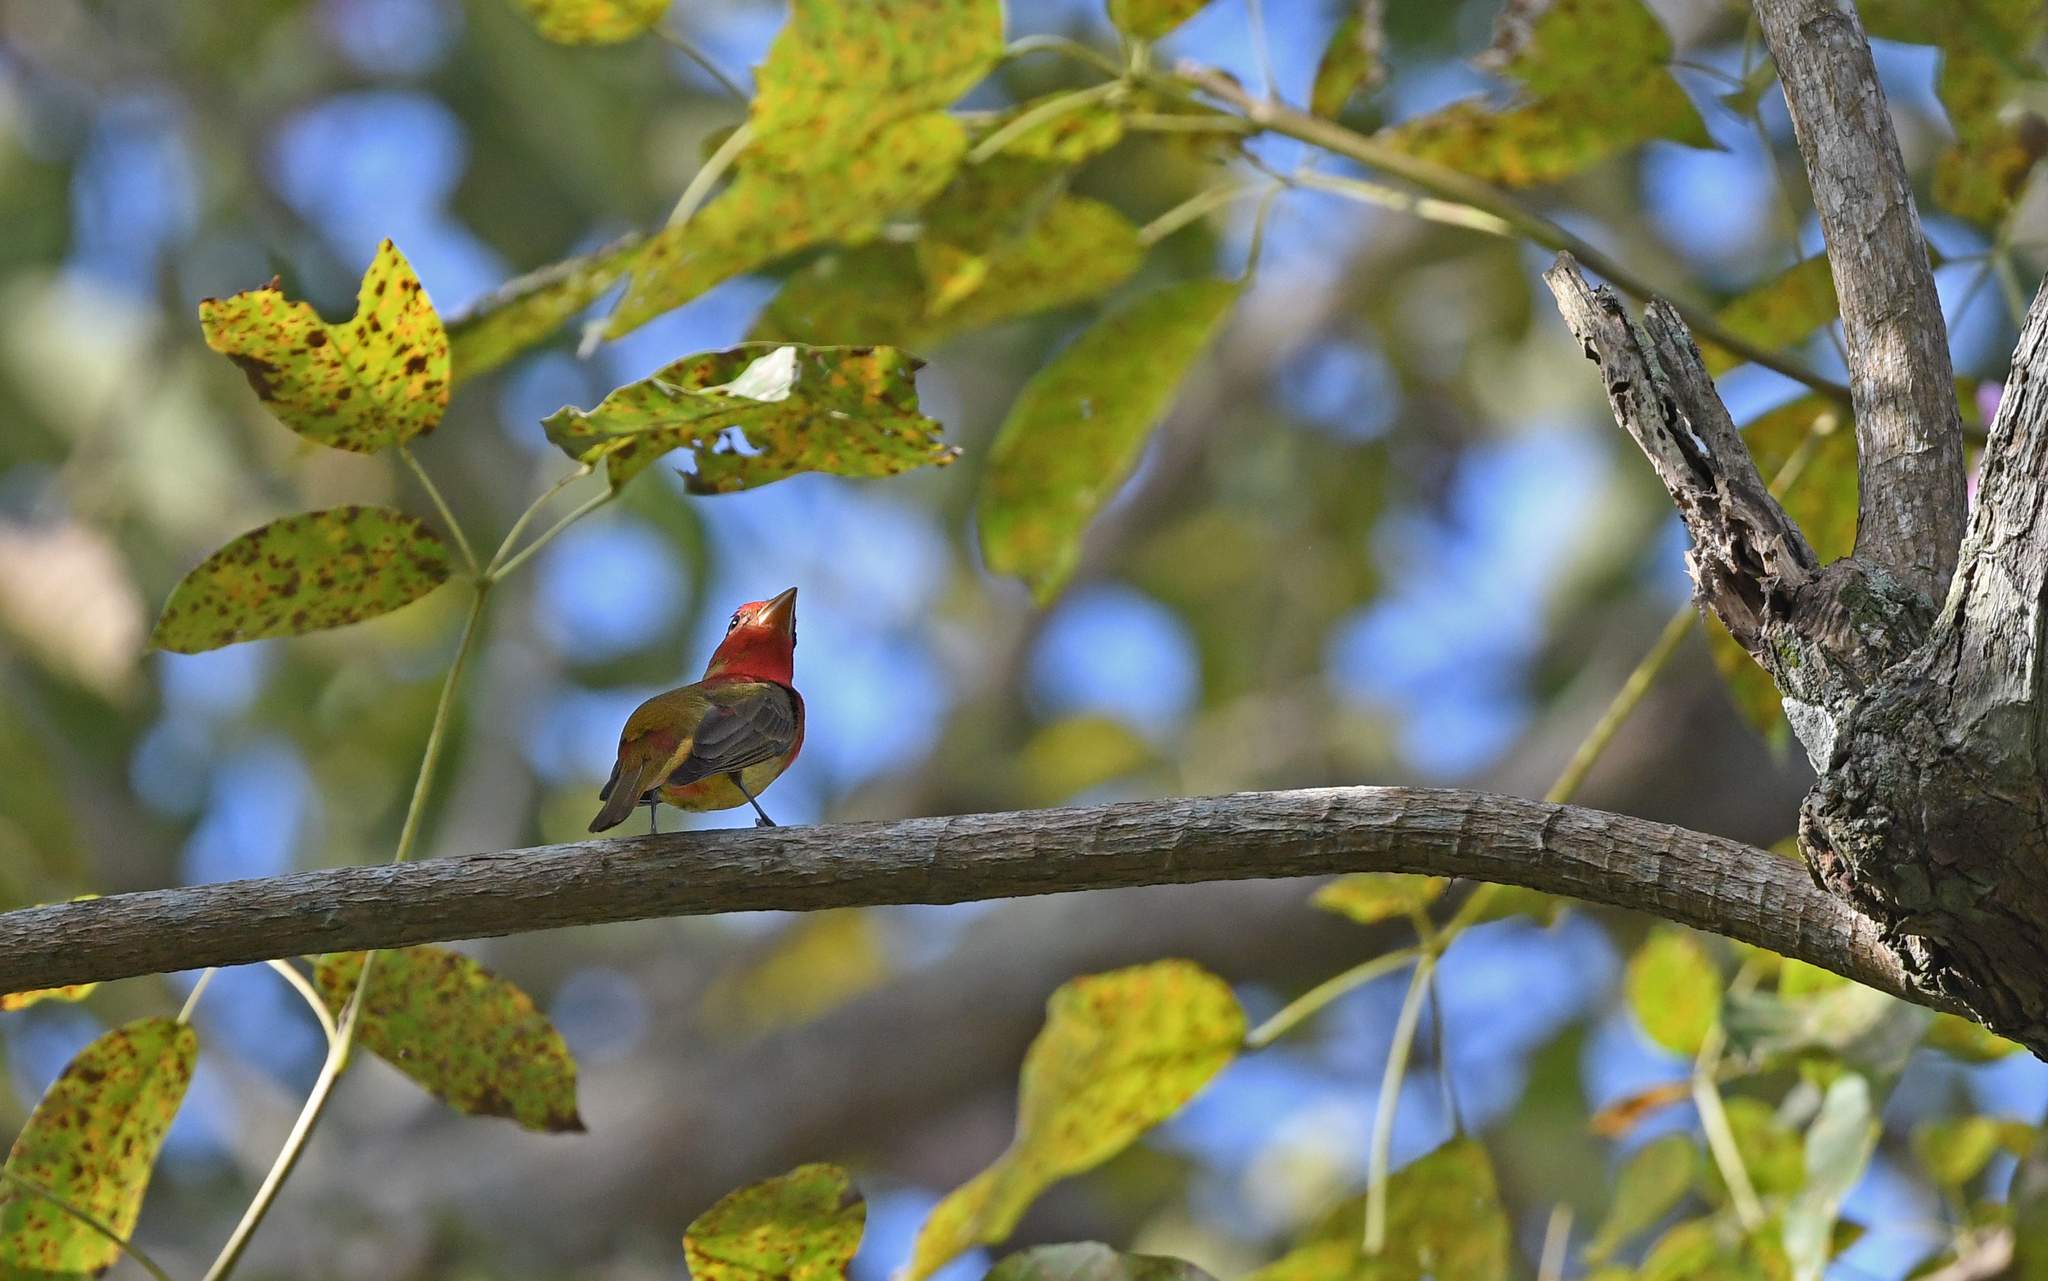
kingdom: Animalia
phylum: Chordata
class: Aves
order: Passeriformes
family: Cardinalidae
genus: Piranga
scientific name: Piranga rubra
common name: Summer tanager
